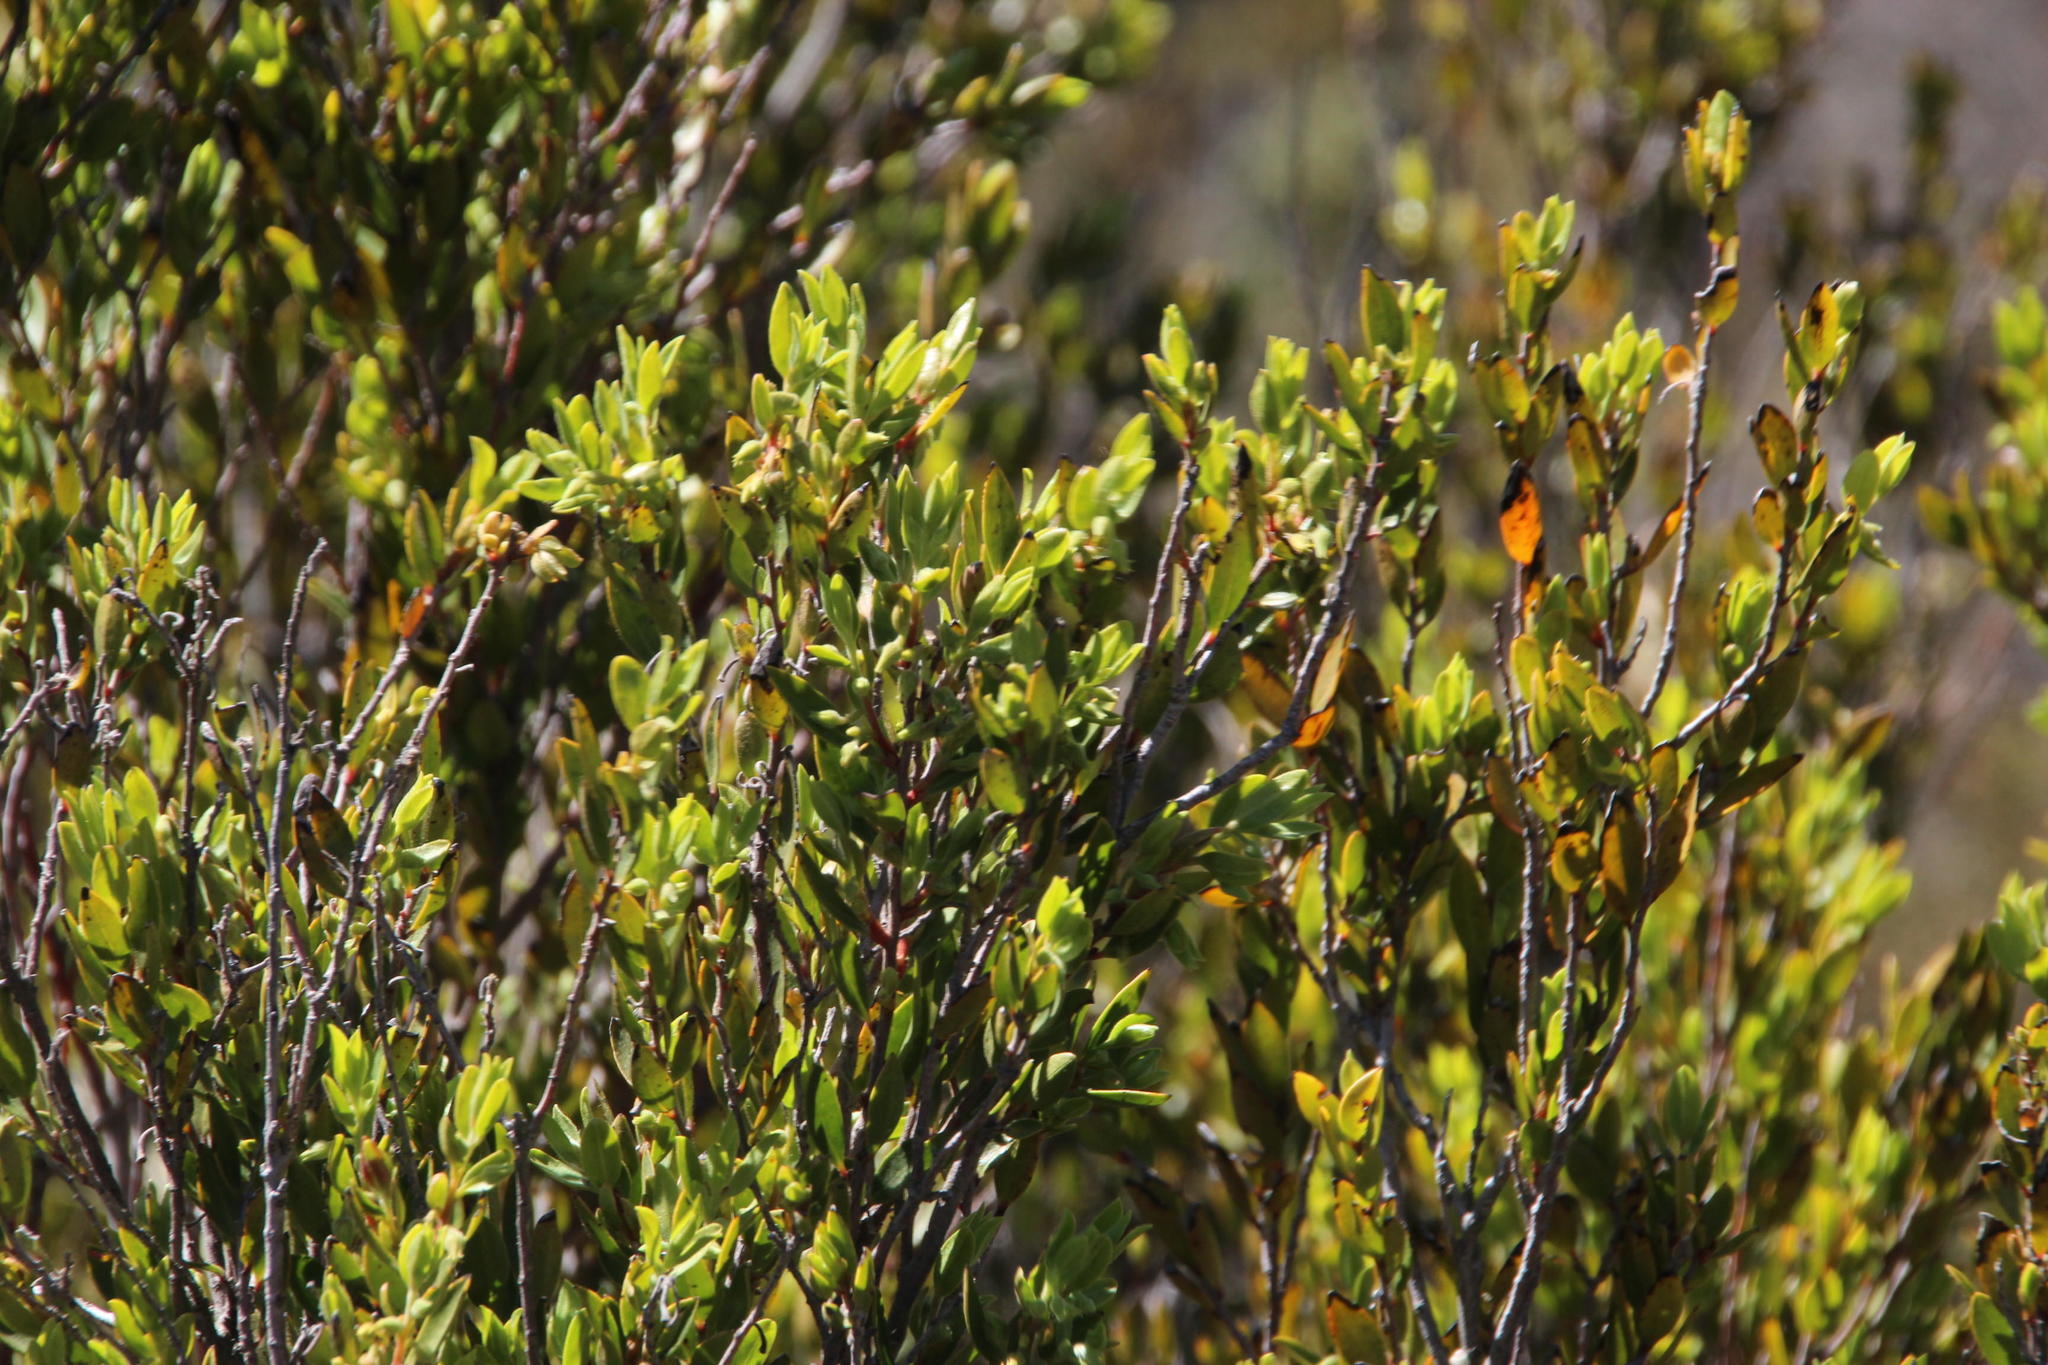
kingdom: Plantae
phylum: Tracheophyta
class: Magnoliopsida
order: Ericales
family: Ebenaceae
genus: Diospyros
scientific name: Diospyros glabra
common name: Fynbos star apple
